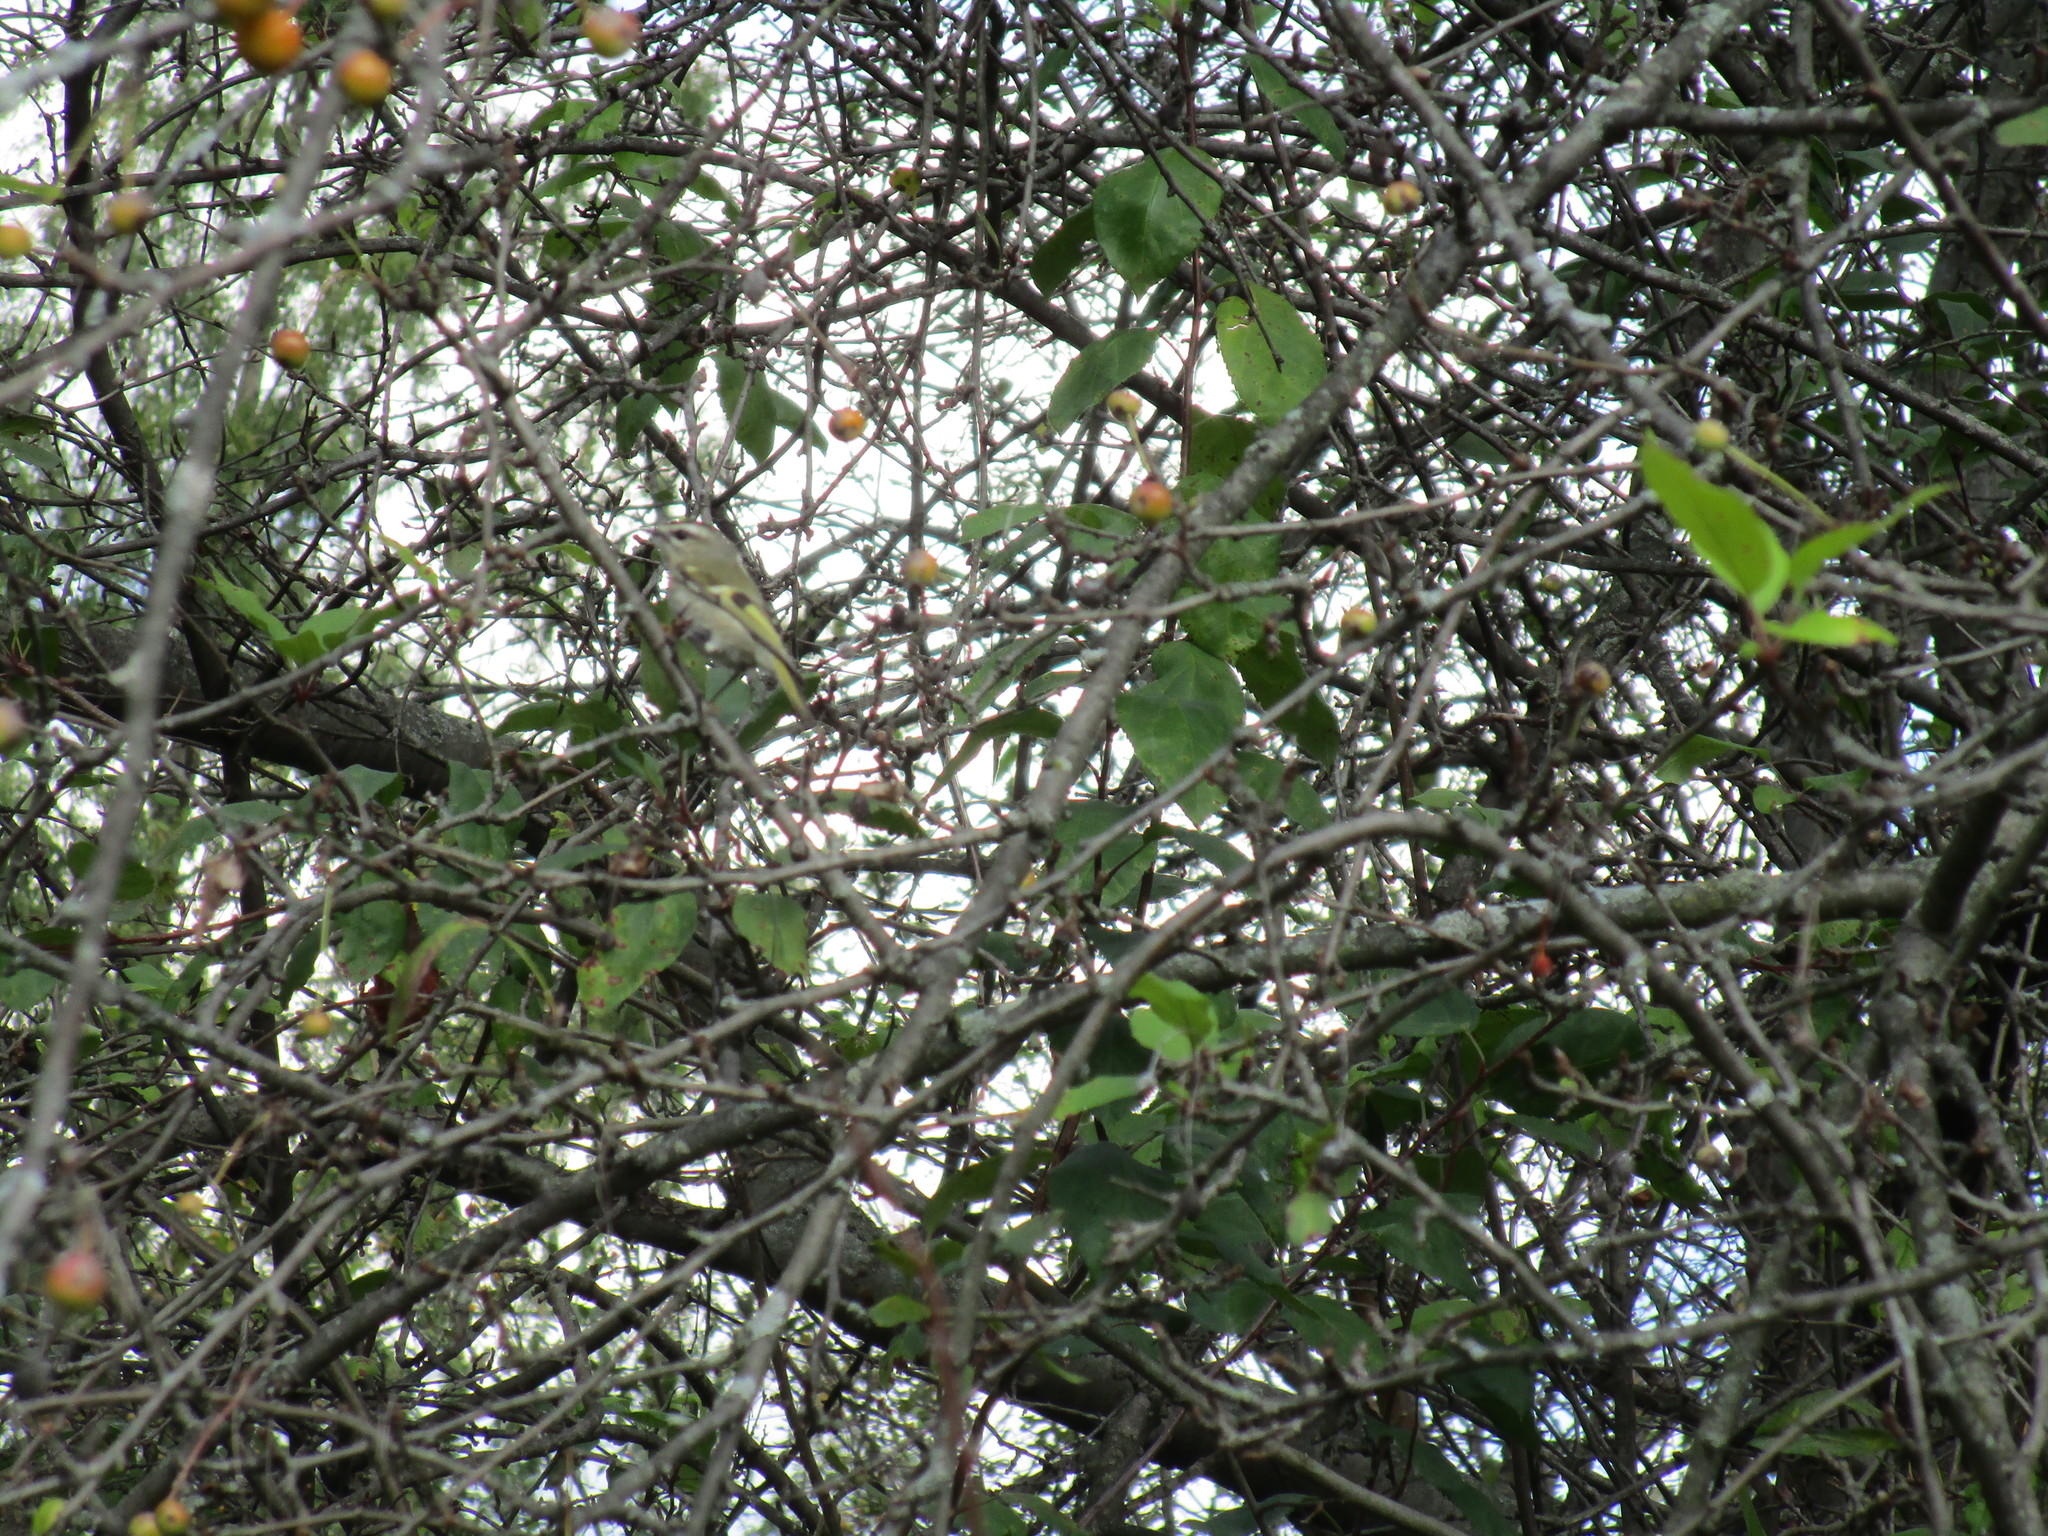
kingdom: Animalia
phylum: Chordata
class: Aves
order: Passeriformes
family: Regulidae
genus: Regulus
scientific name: Regulus satrapa
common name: Golden-crowned kinglet
